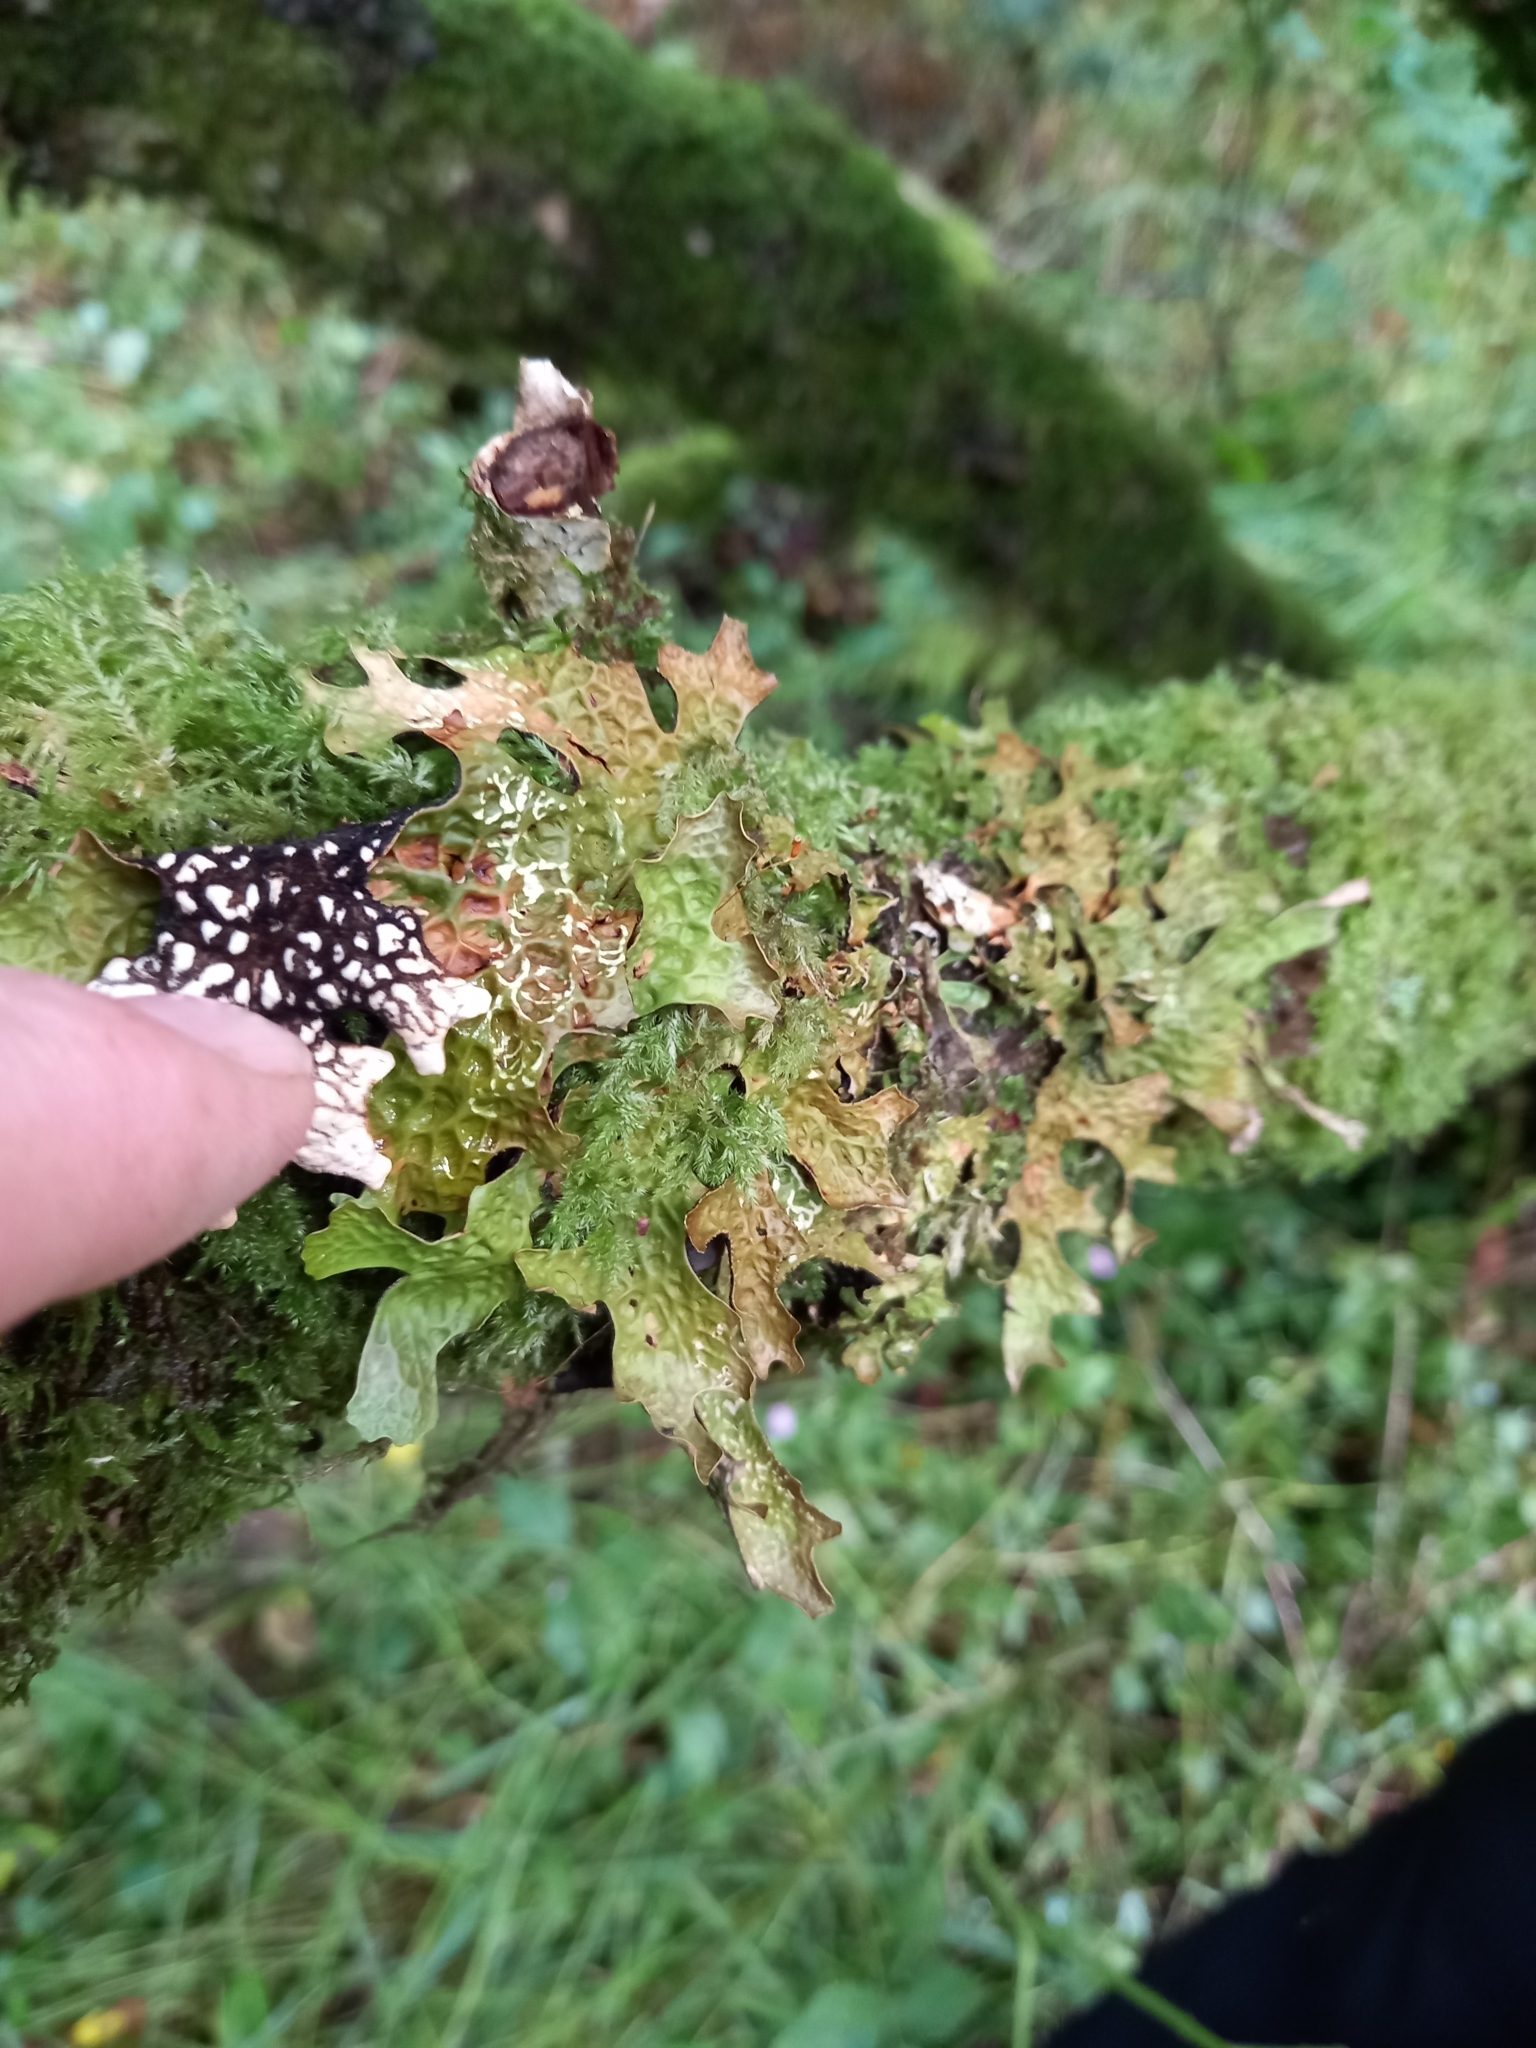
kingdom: Fungi
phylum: Ascomycota
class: Lecanoromycetes
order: Peltigerales
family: Lobariaceae
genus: Lobaria
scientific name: Lobaria pulmonaria
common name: Lungwort
